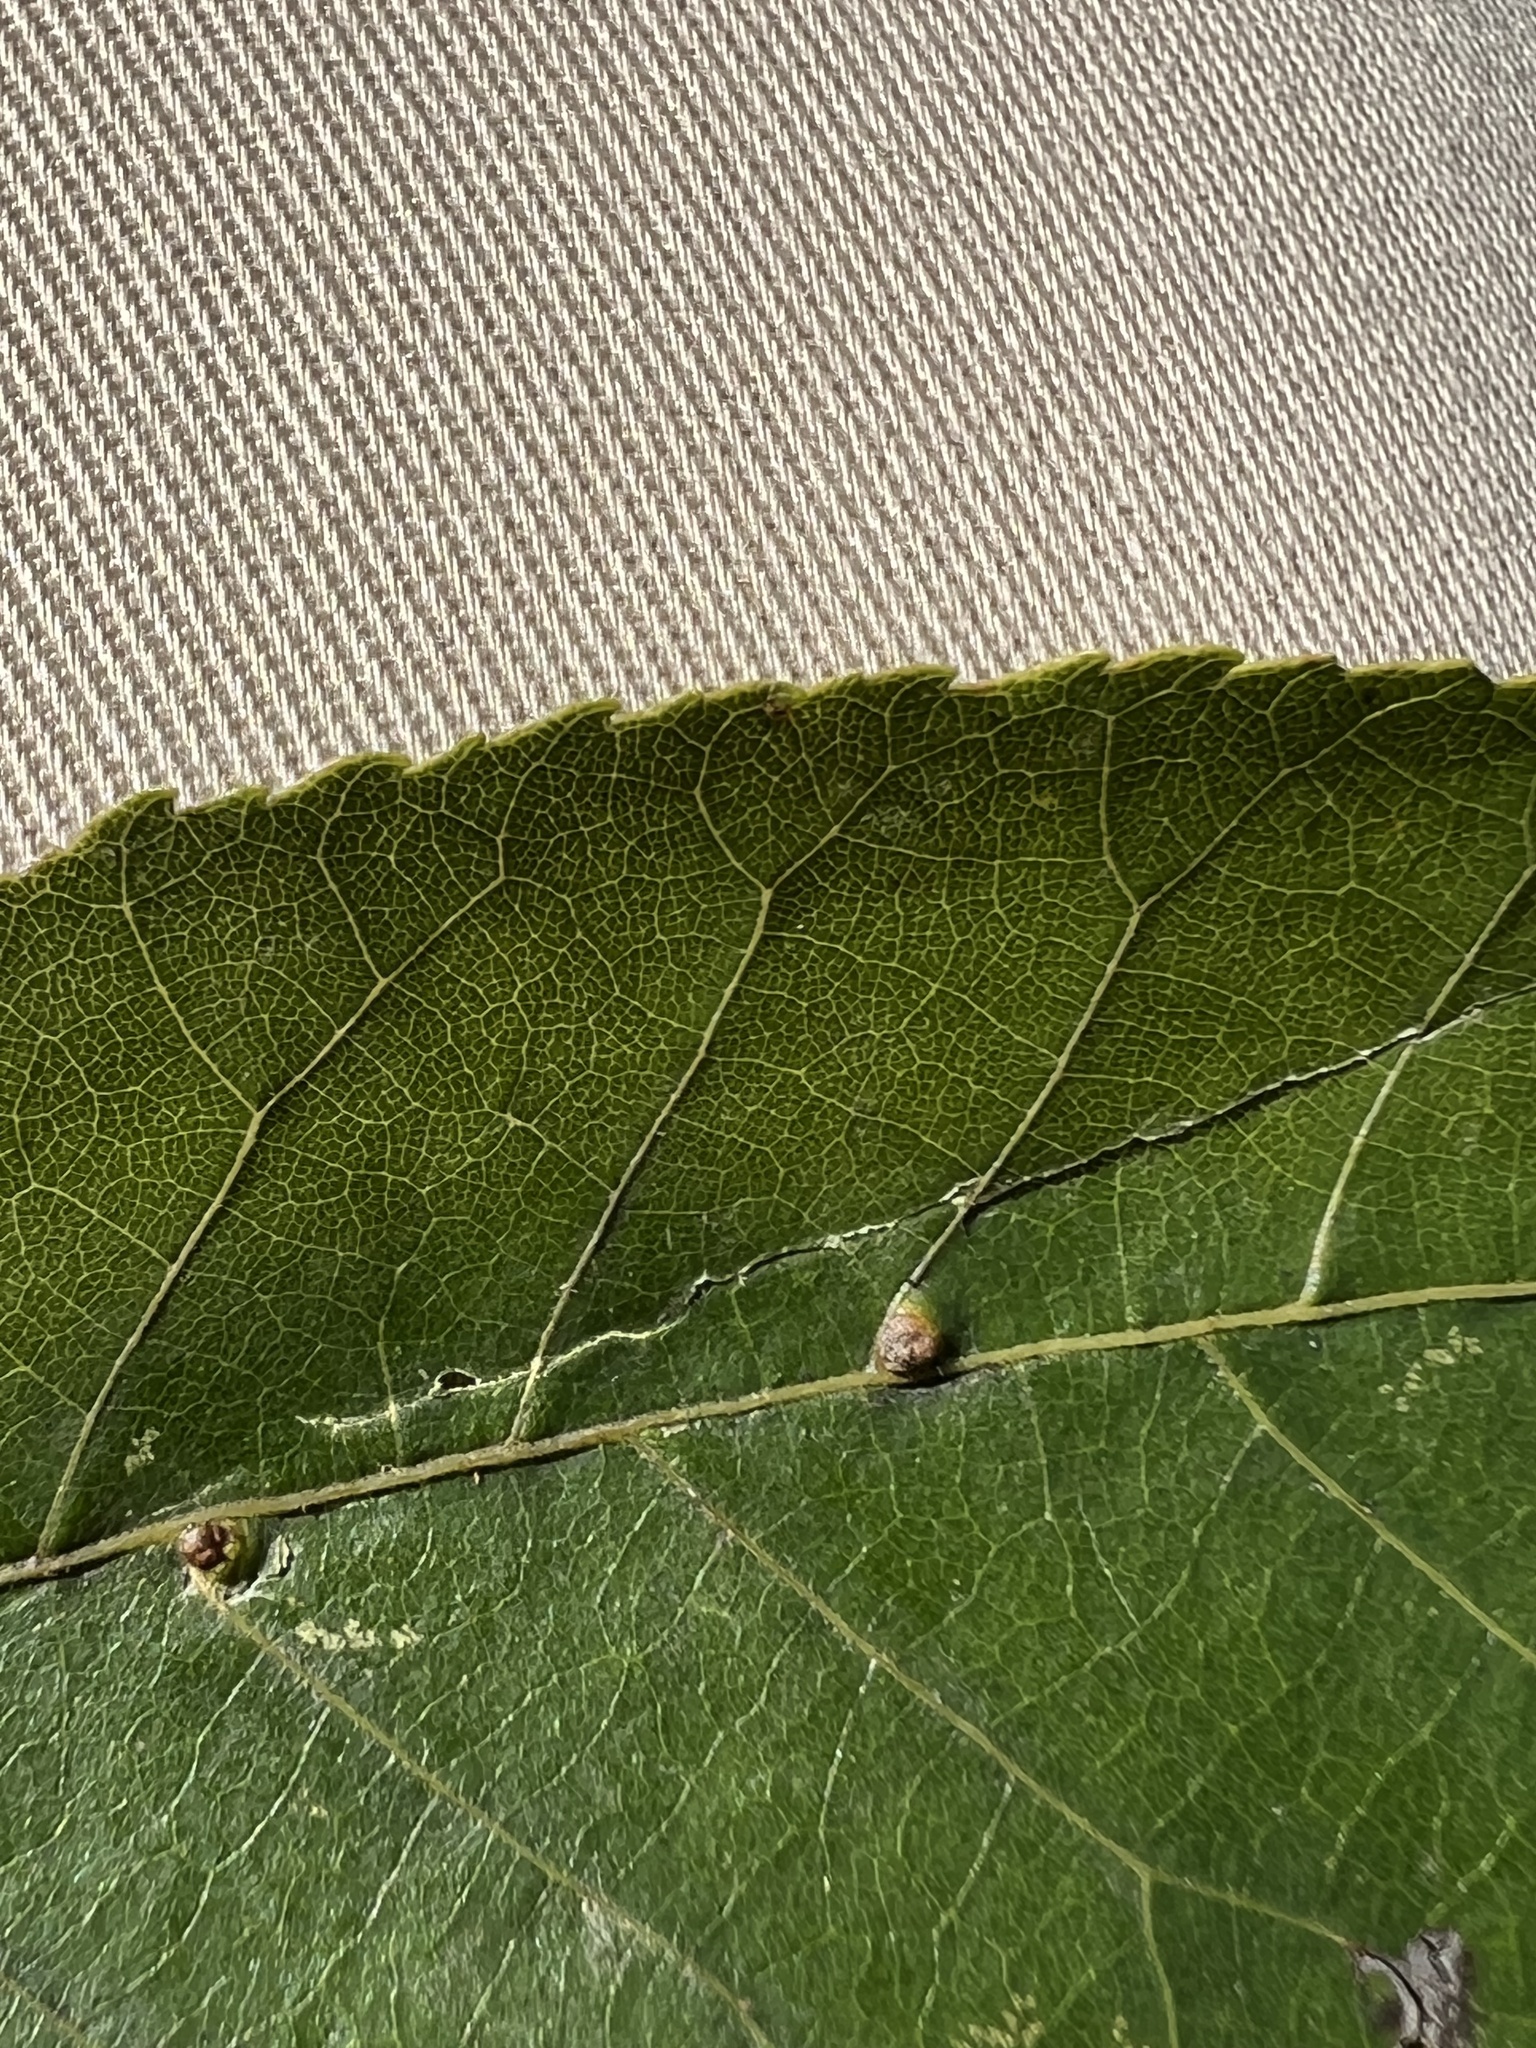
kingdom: Animalia
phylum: Arthropoda
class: Arachnida
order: Trombidiformes
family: Eriophyidae
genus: Aceria
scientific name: Aceria
